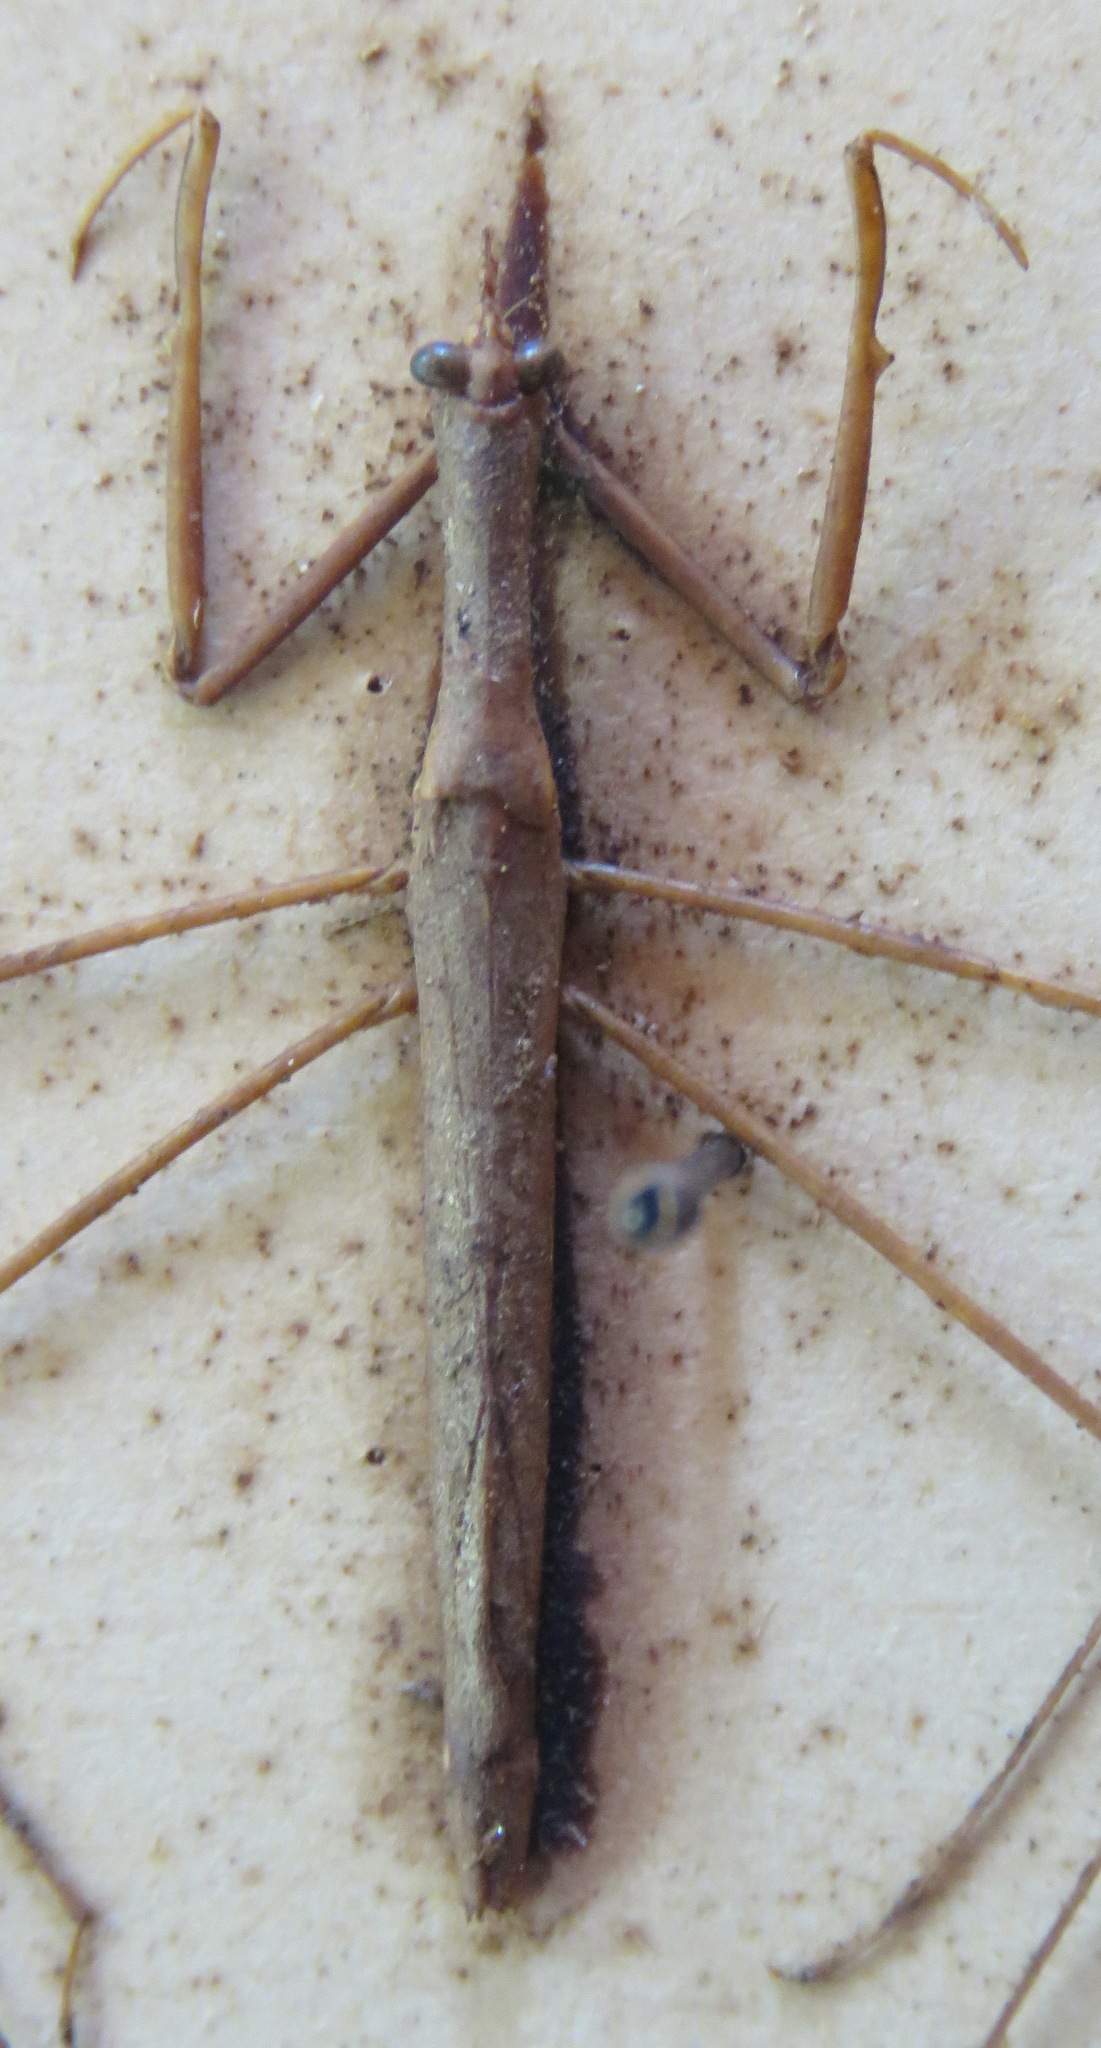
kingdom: Animalia
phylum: Arthropoda
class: Insecta
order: Hemiptera
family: Nepidae
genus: Ranatra
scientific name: Ranatra parvipes
